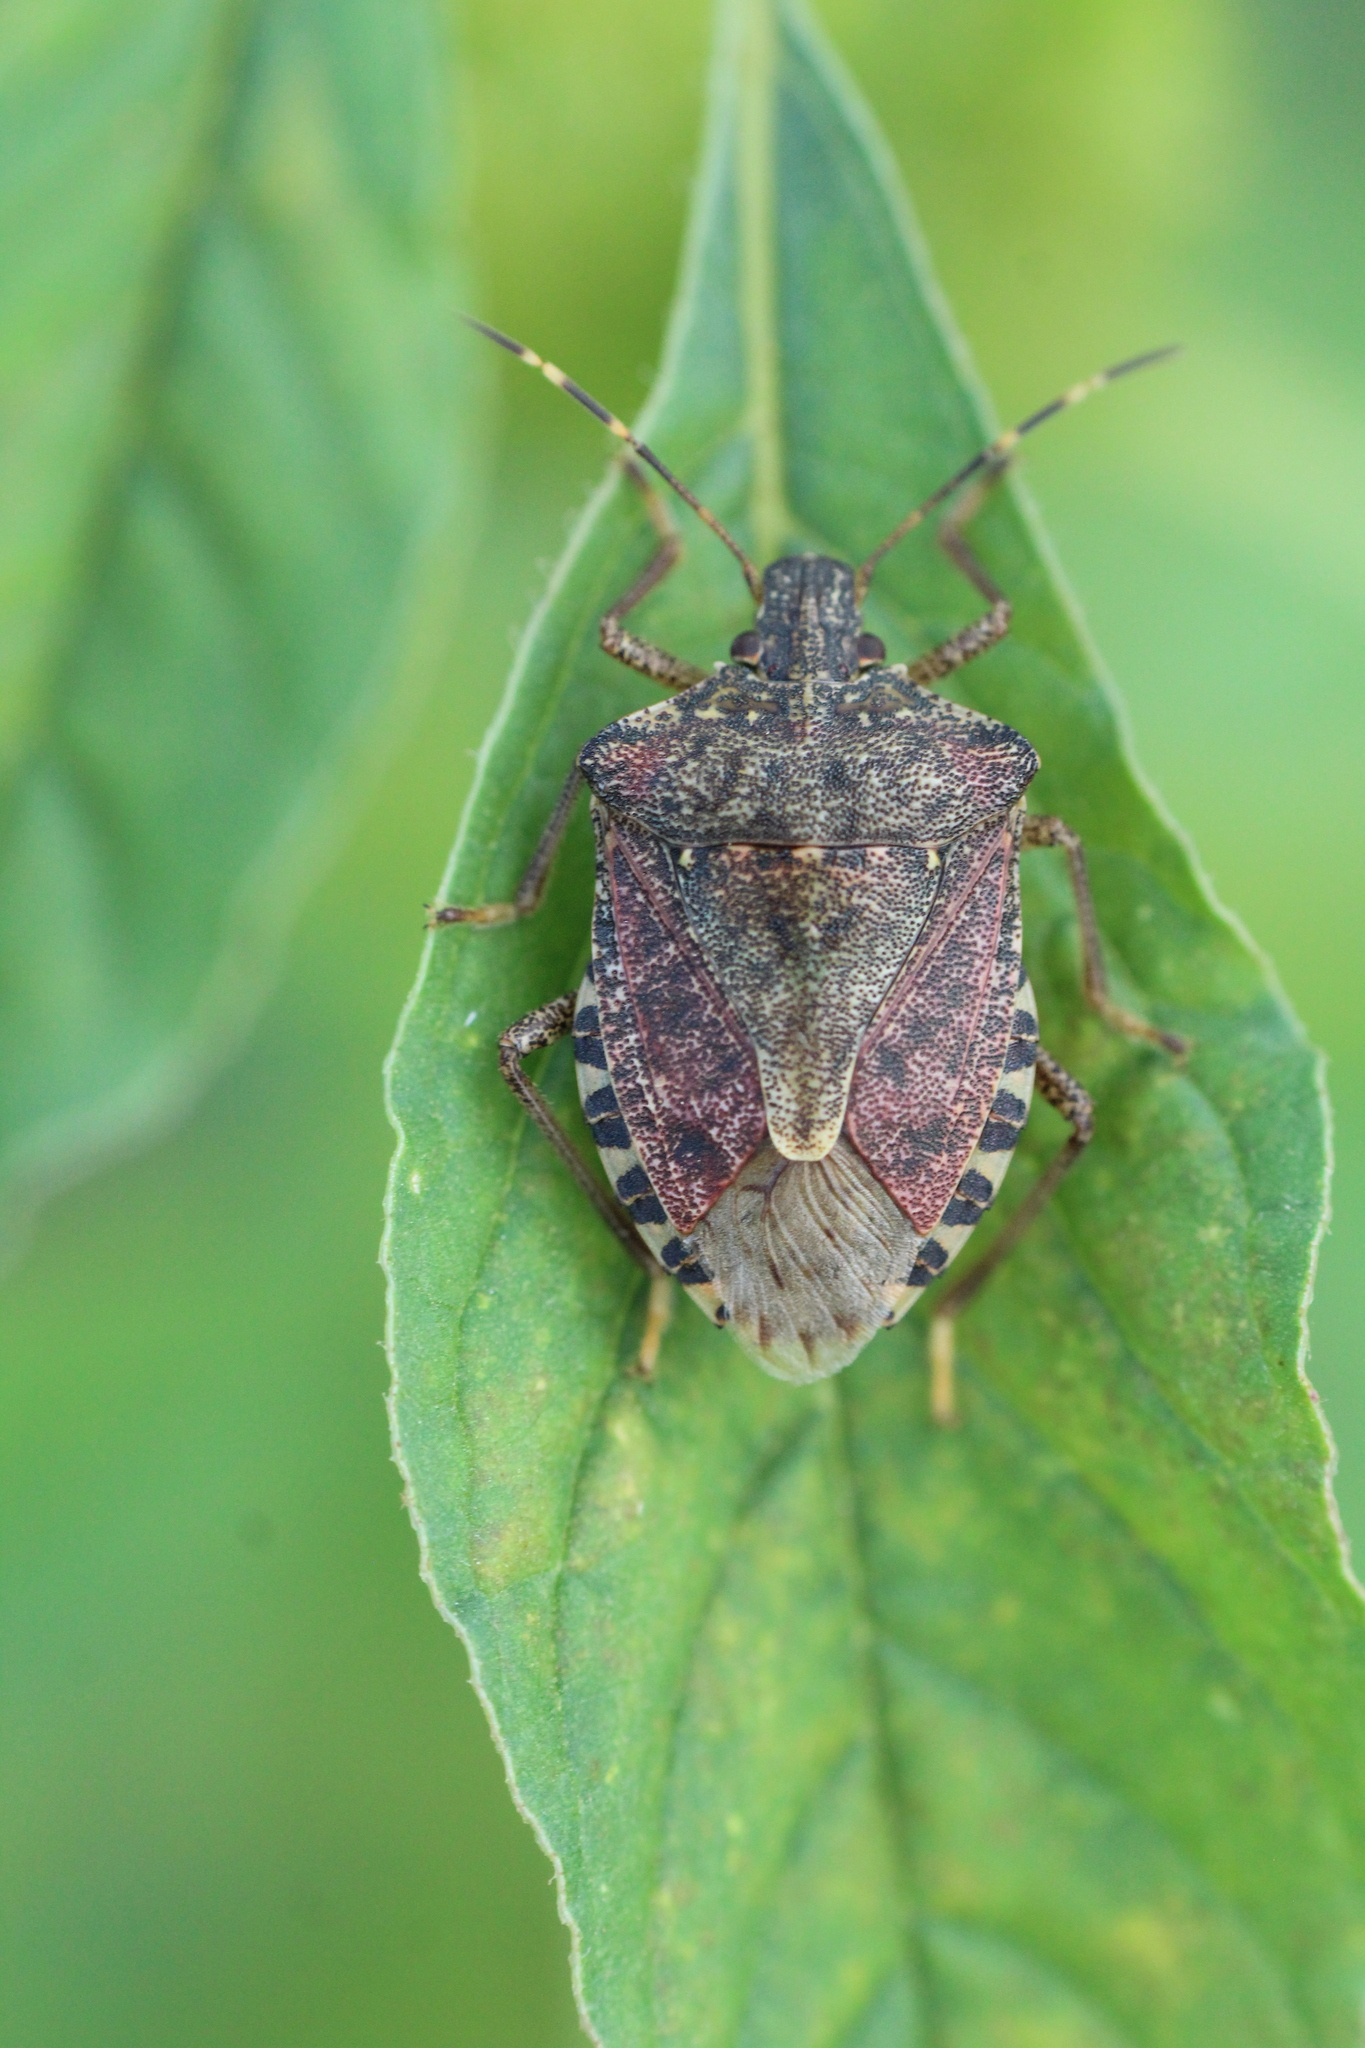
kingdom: Animalia
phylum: Arthropoda
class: Insecta
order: Hemiptera
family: Pentatomidae
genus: Halyomorpha
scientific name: Halyomorpha halys
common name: Brown marmorated stink bug
